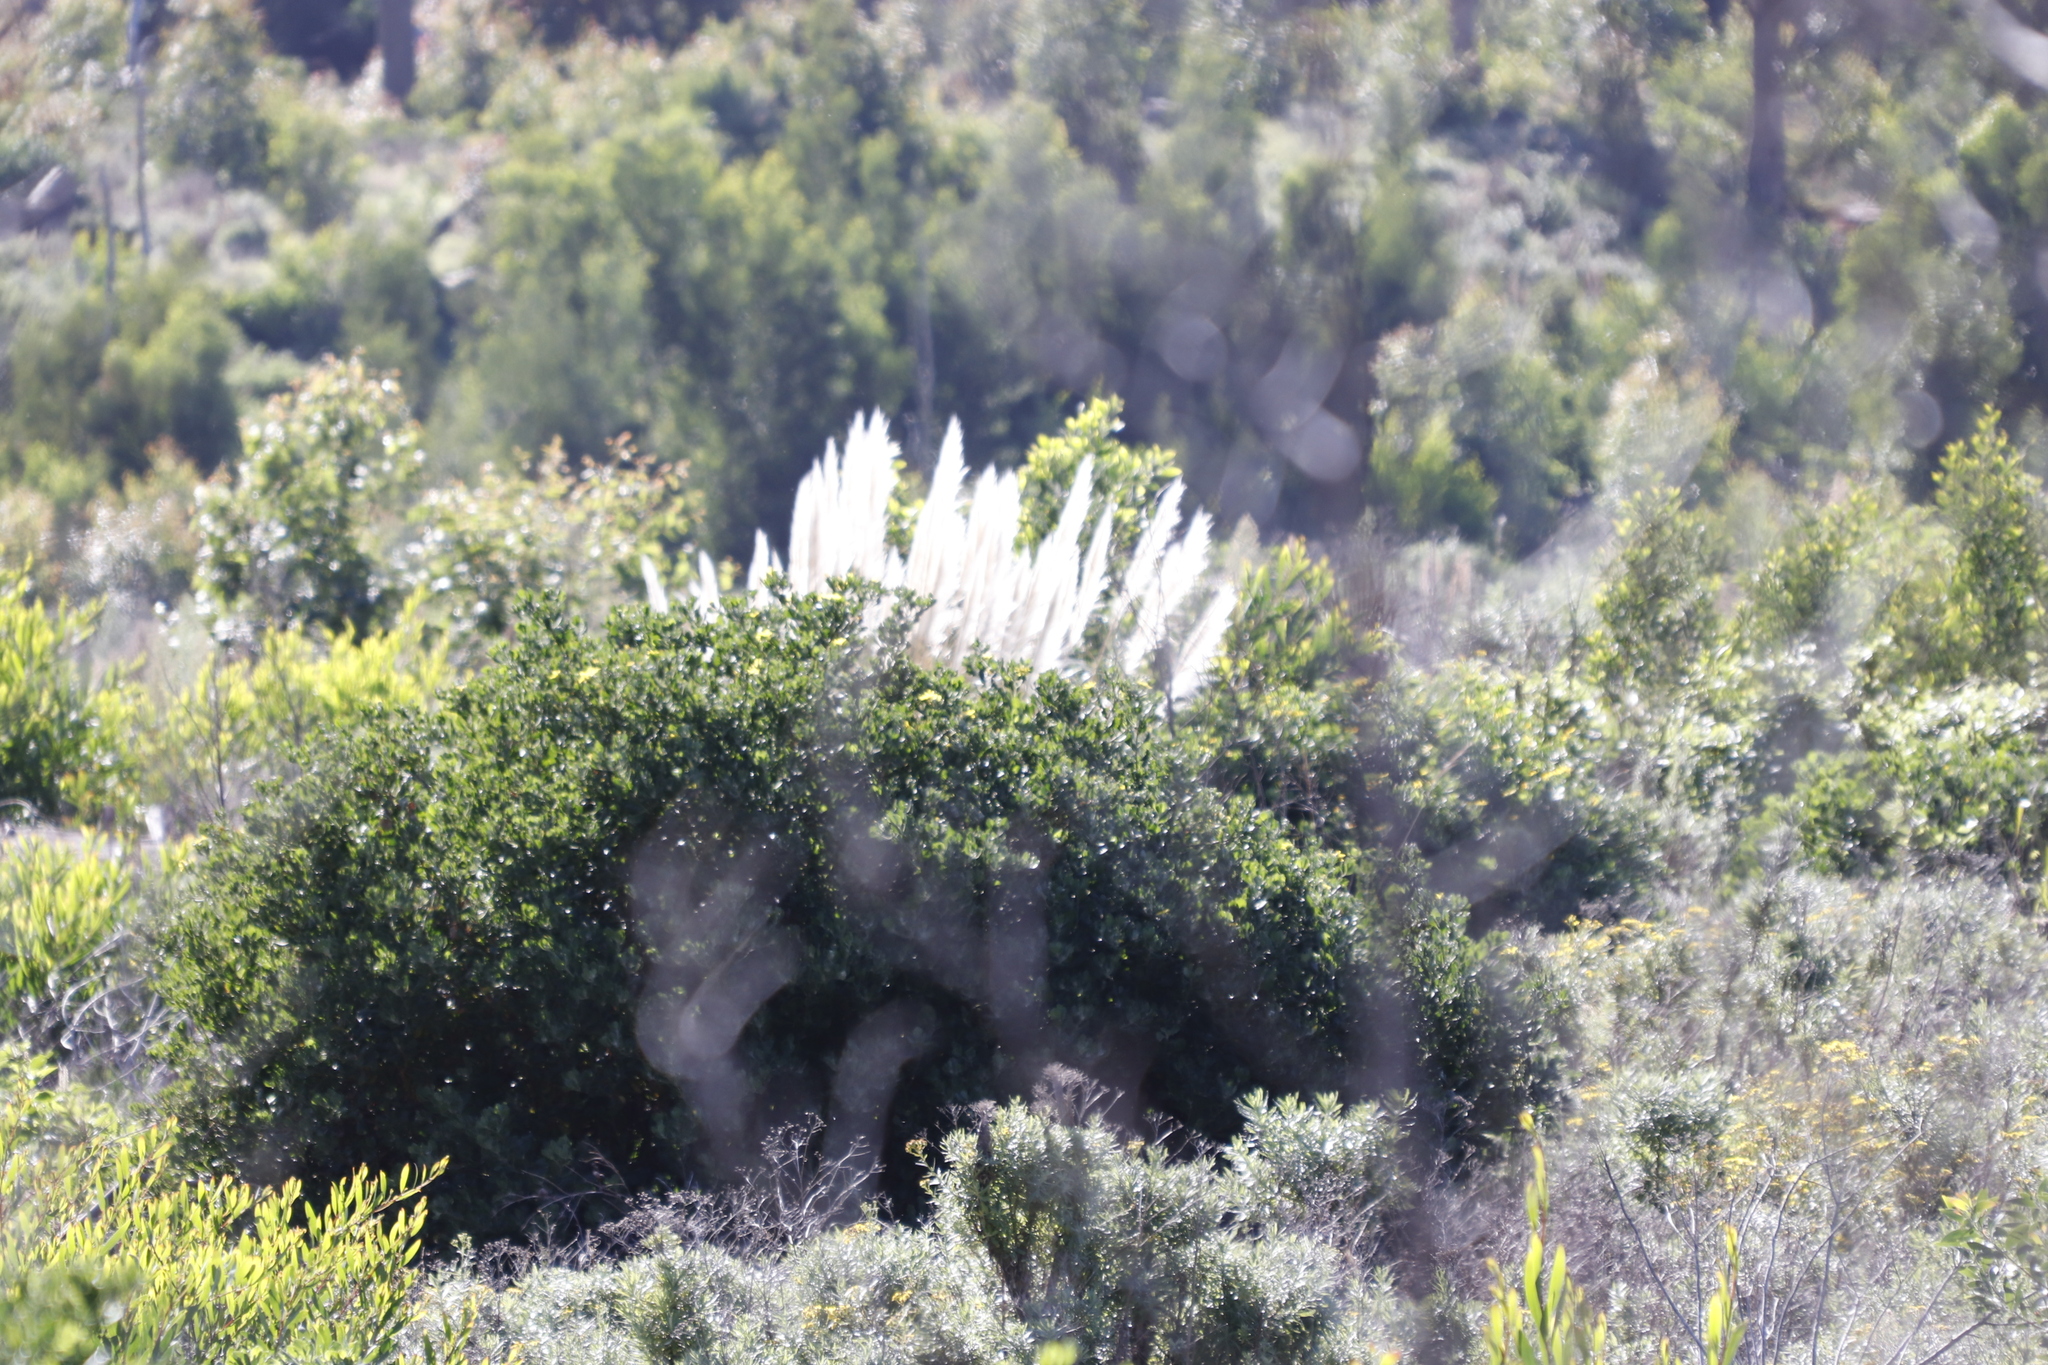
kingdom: Plantae
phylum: Tracheophyta
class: Liliopsida
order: Poales
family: Poaceae
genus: Cortaderia
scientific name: Cortaderia selloana
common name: Uruguayan pampas grass
